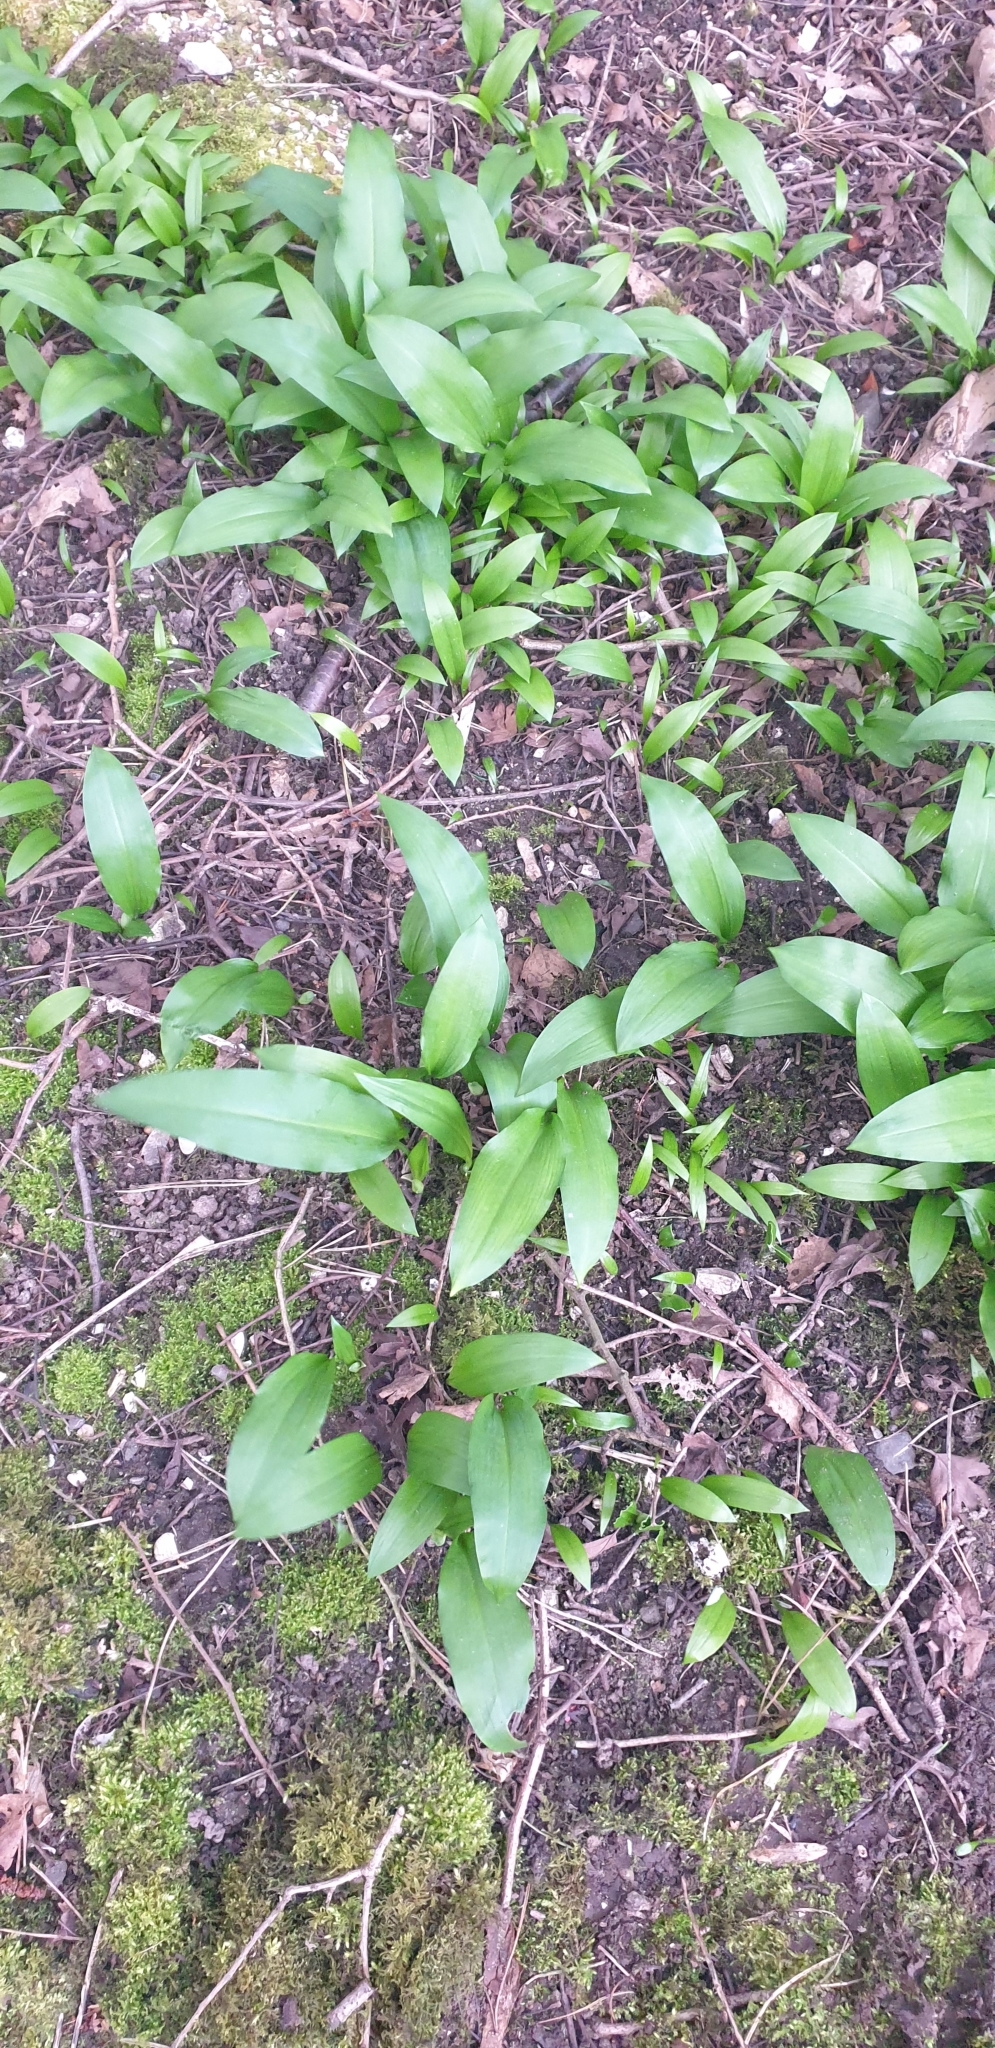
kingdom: Plantae
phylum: Tracheophyta
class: Liliopsida
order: Asparagales
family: Amaryllidaceae
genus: Allium
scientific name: Allium ursinum
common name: Ramsons
